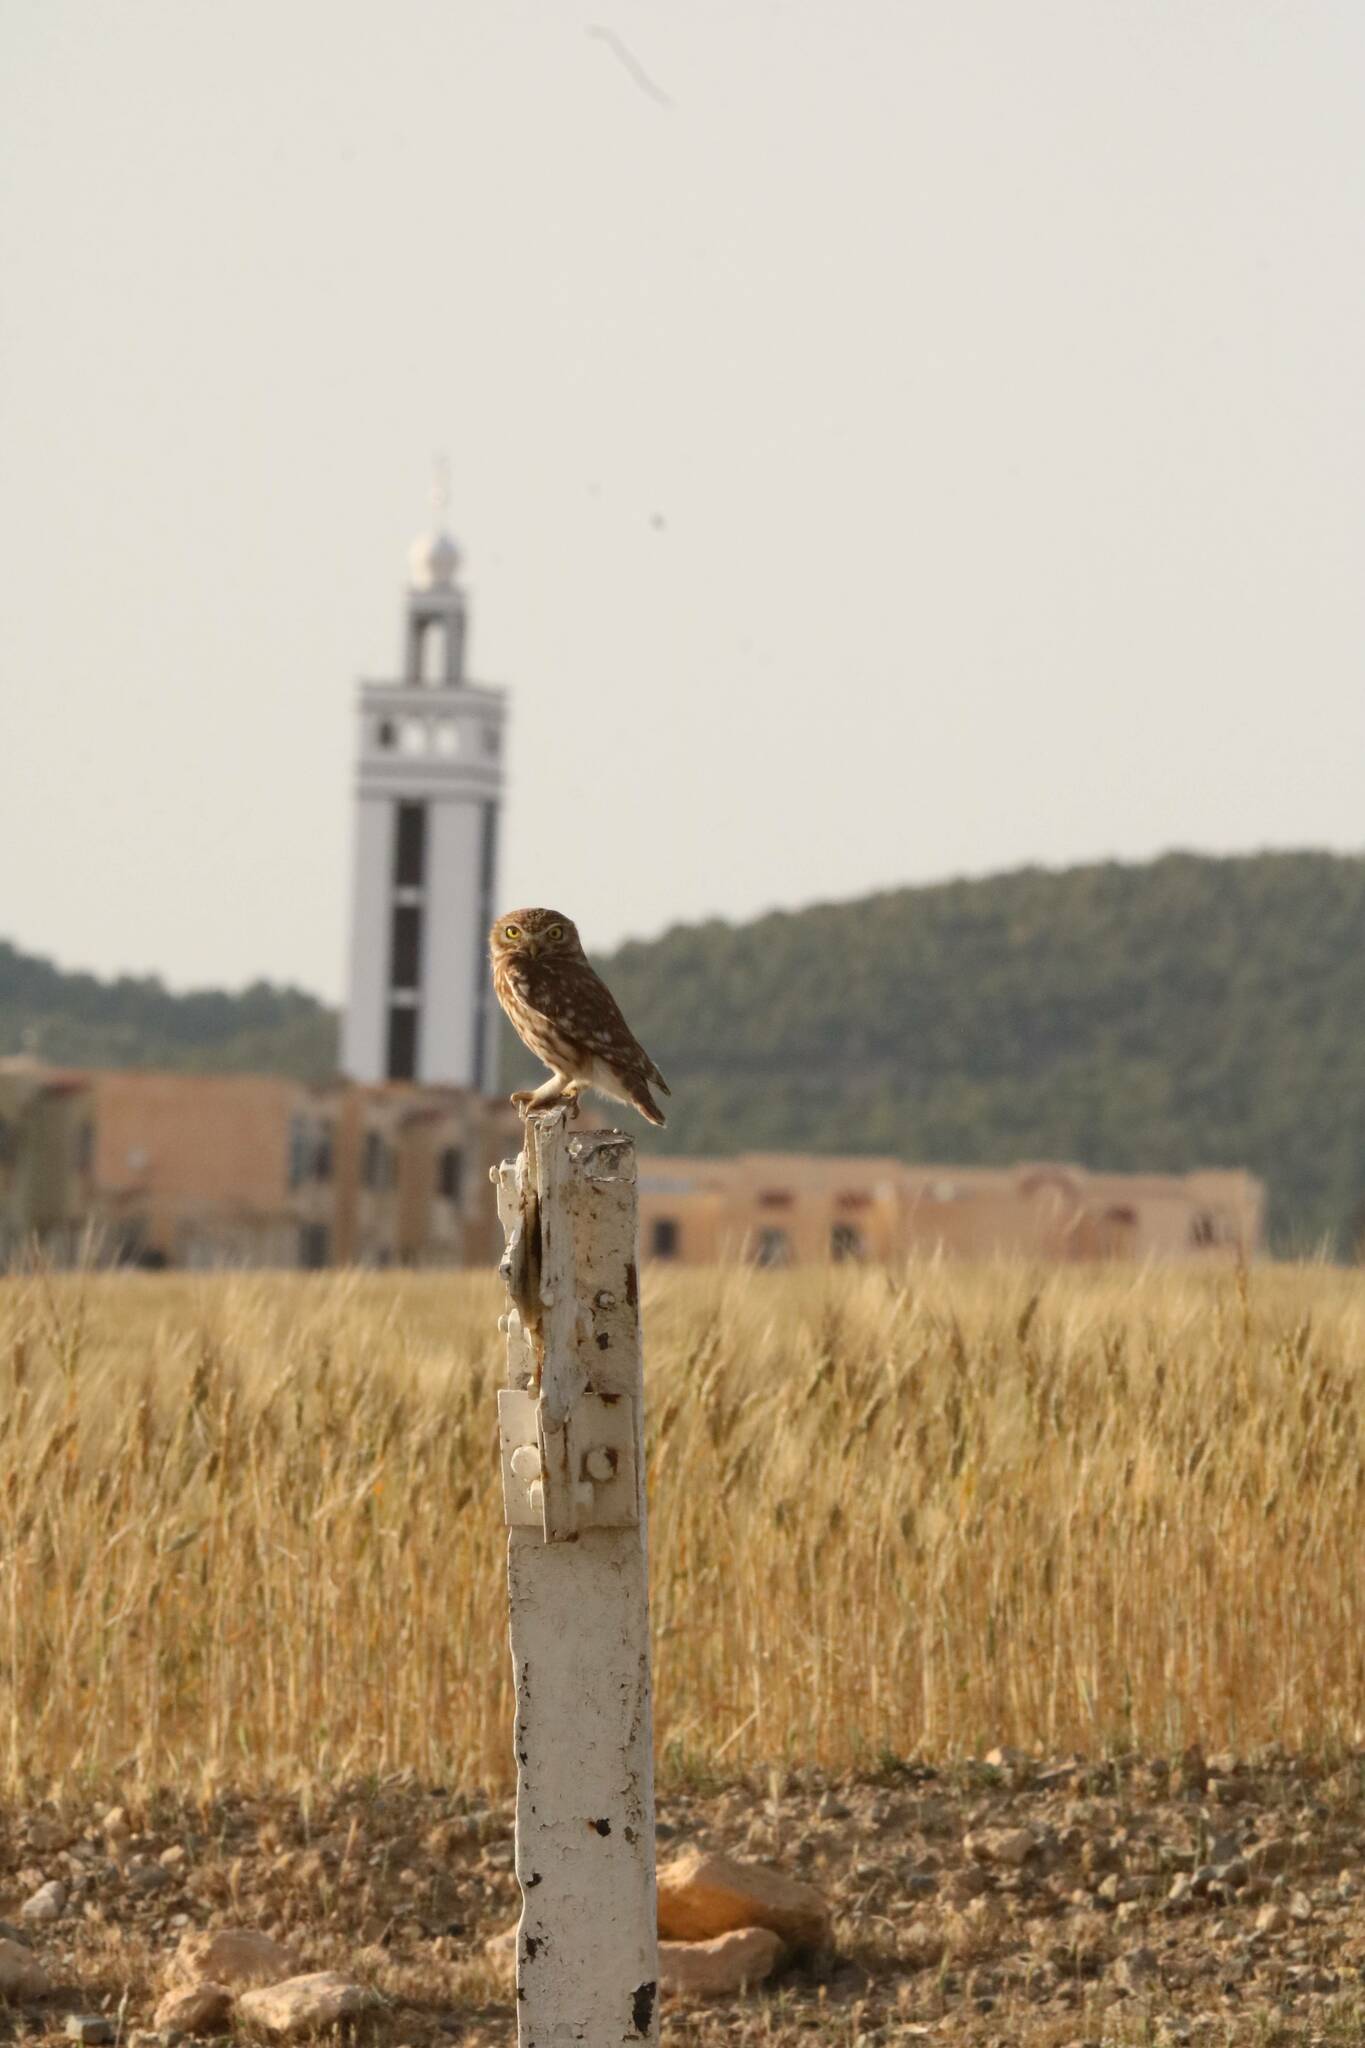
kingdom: Animalia
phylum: Chordata
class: Aves
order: Strigiformes
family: Strigidae
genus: Athene
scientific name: Athene noctua
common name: Little owl
